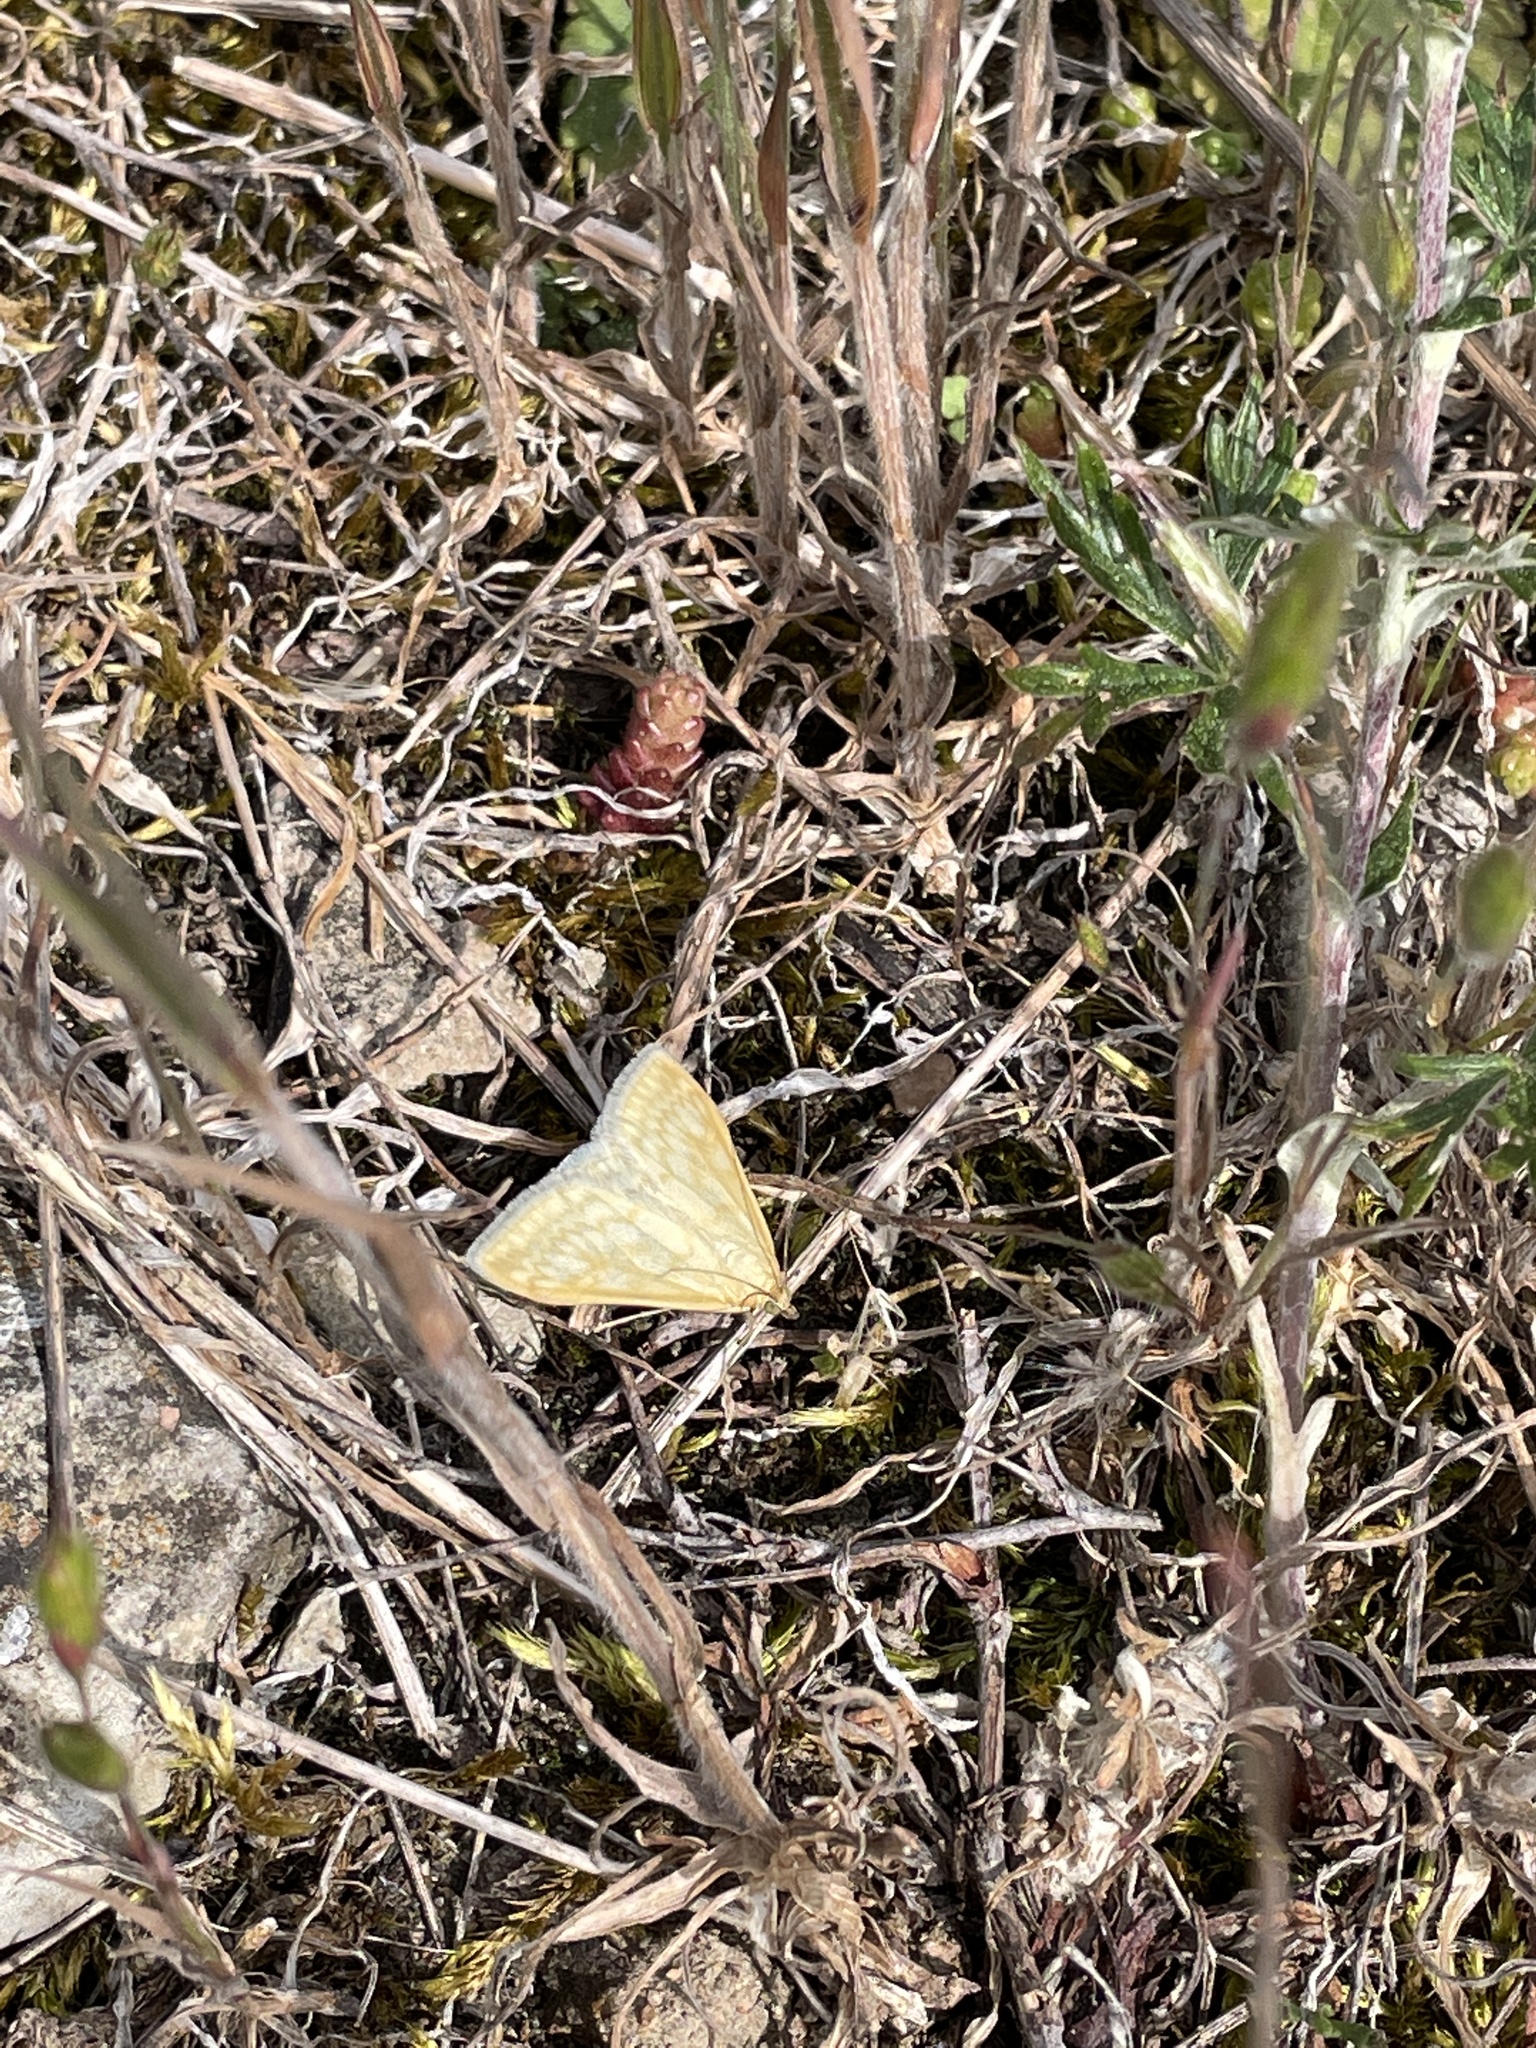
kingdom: Animalia
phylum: Arthropoda
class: Insecta
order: Lepidoptera
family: Crambidae
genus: Sitochroa
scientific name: Sitochroa verticalis
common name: Lesser pearl
